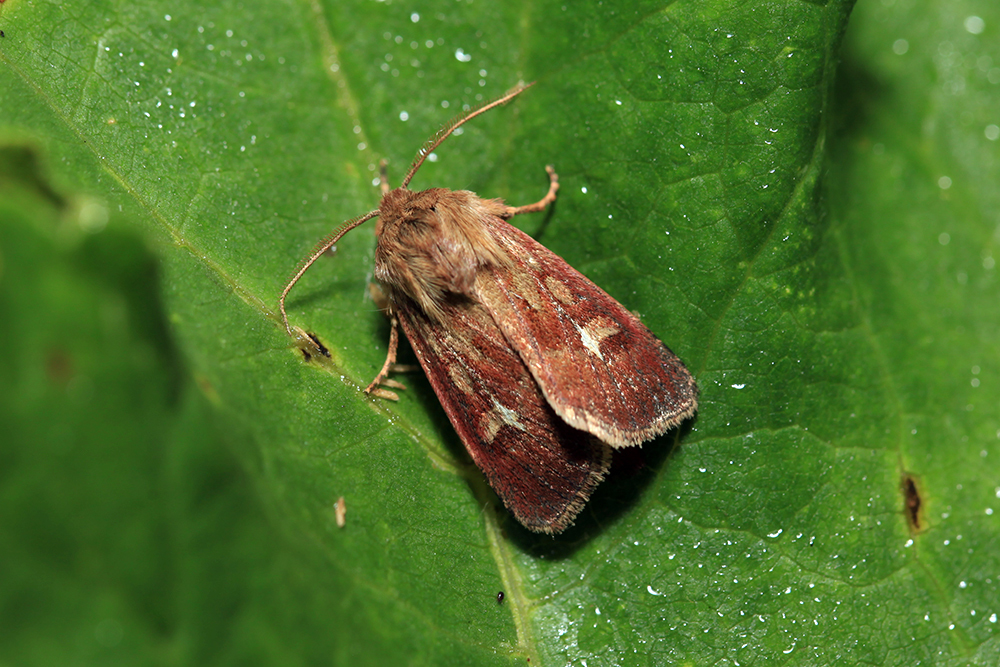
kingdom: Animalia
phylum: Arthropoda
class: Insecta
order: Lepidoptera
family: Noctuidae
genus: Cerapteryx
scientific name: Cerapteryx graminis
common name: Antler moth
